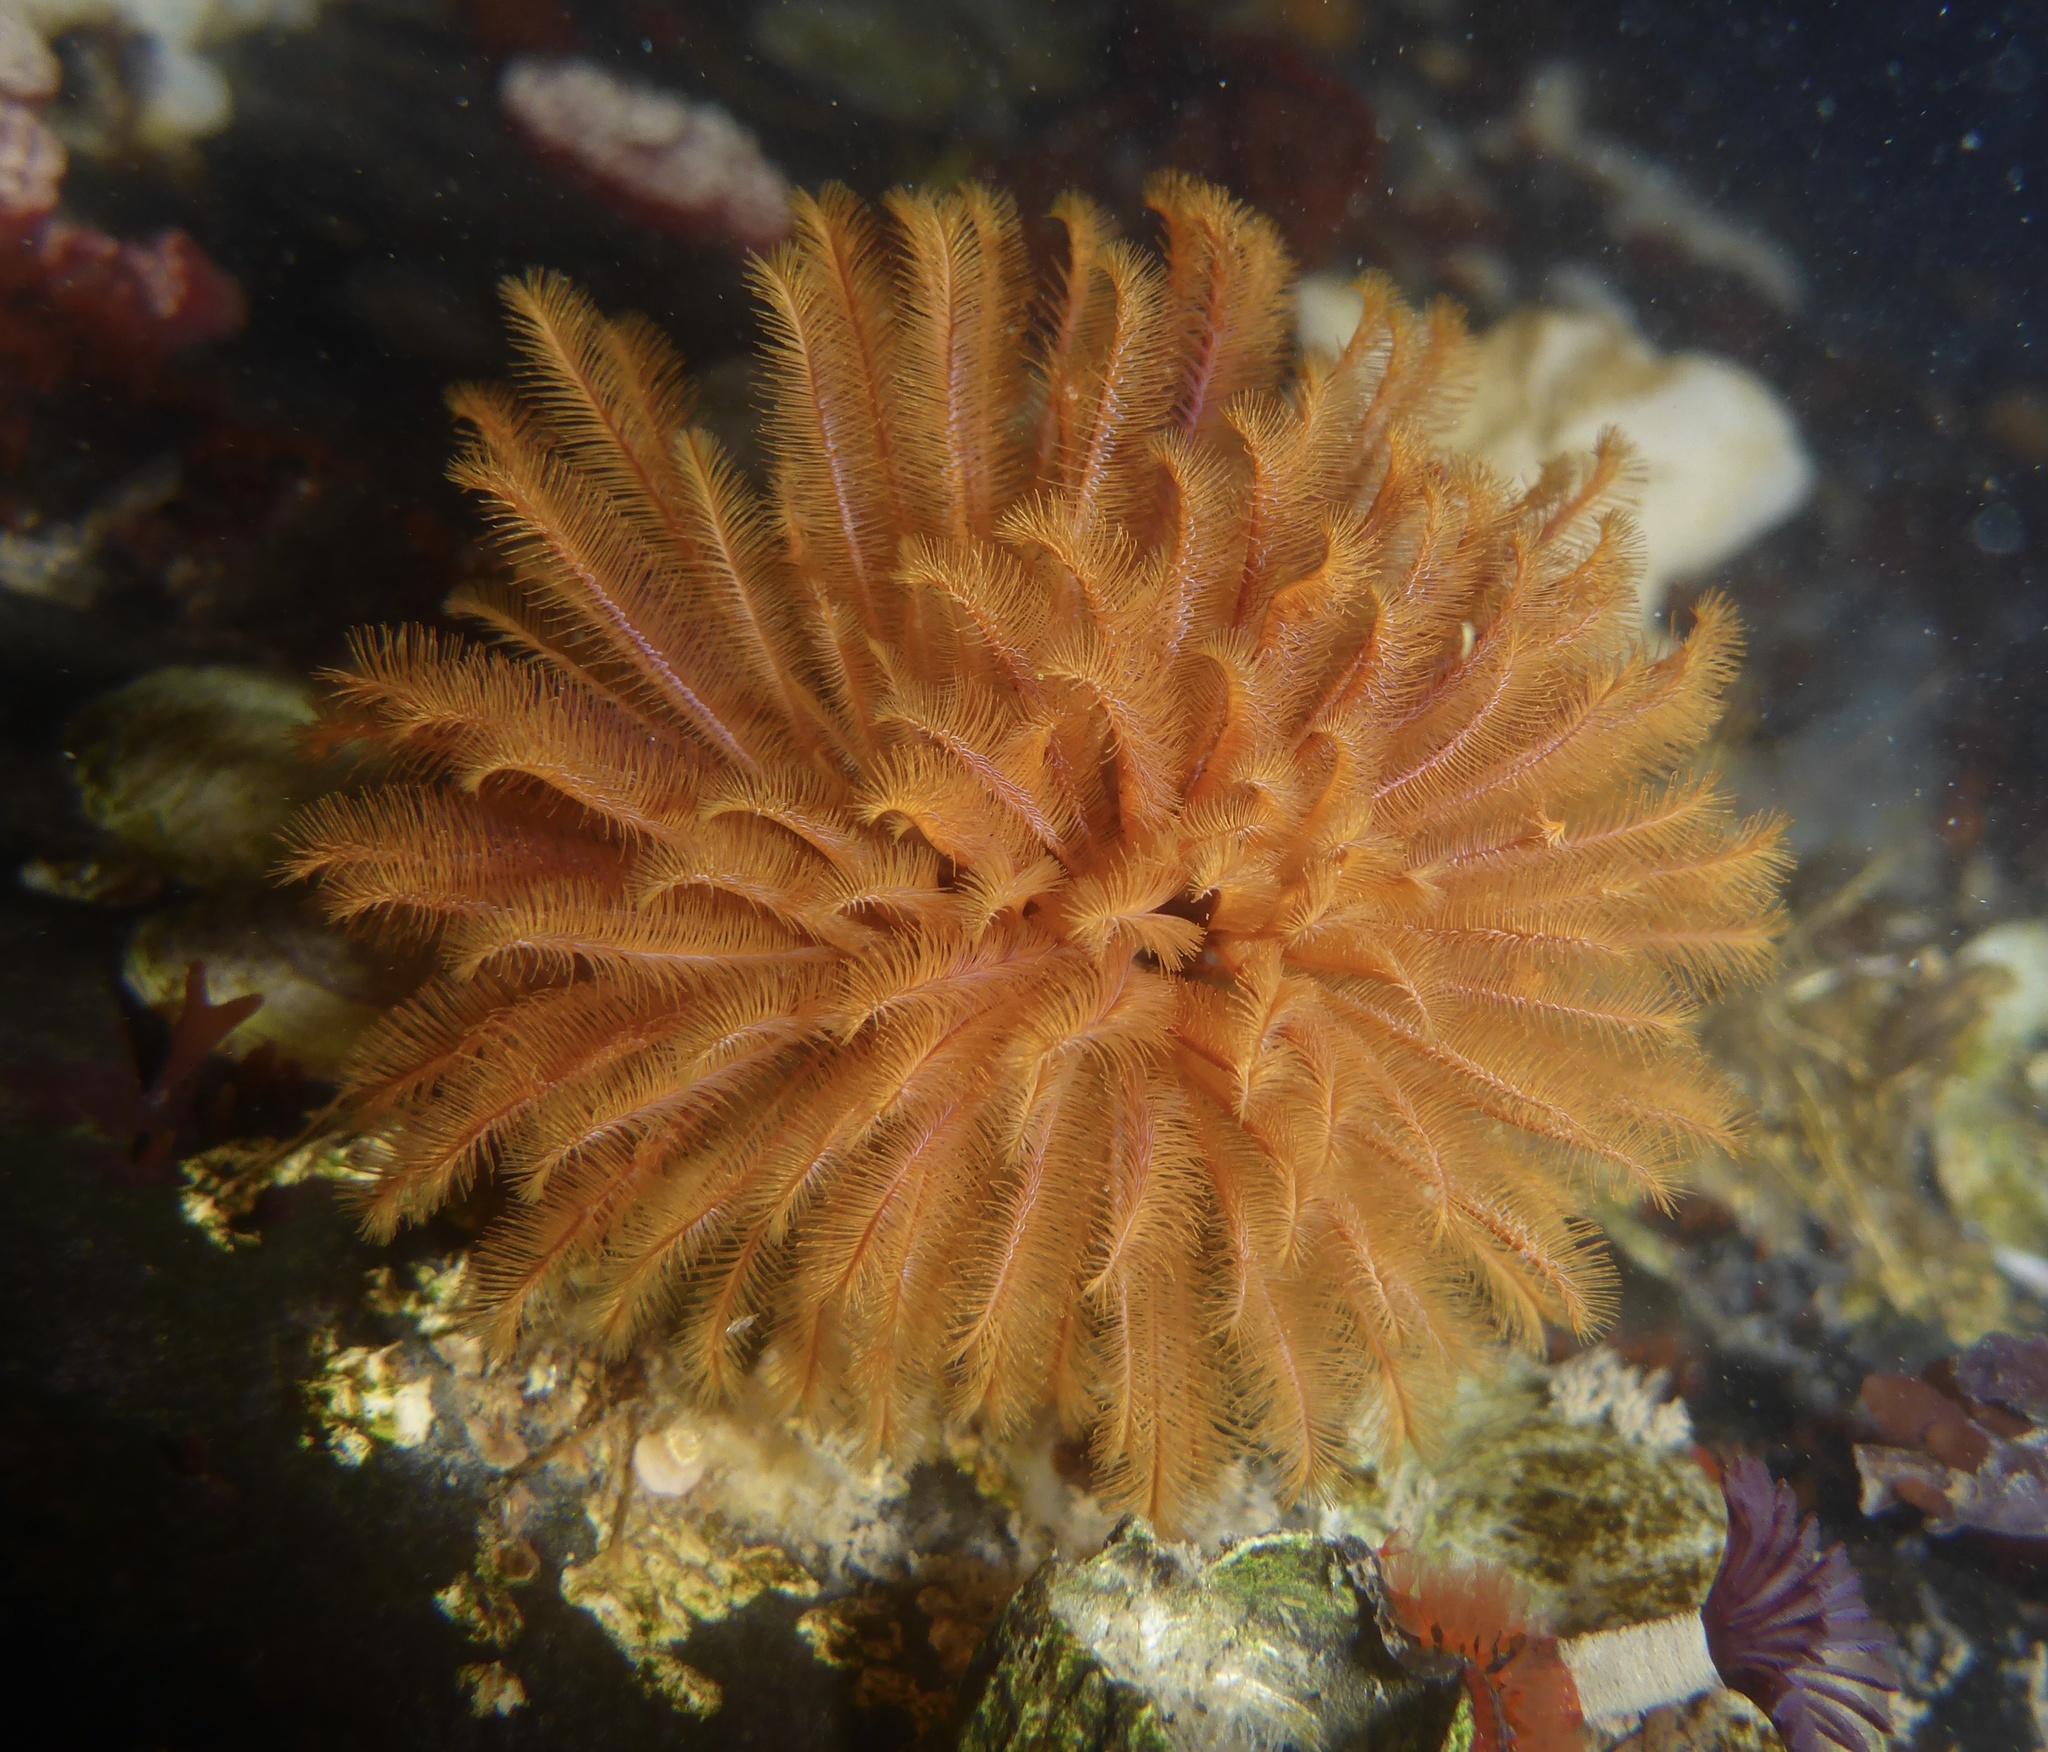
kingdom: Animalia
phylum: Annelida
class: Polychaeta
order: Sabellida
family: Sabellidae
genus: Eudistylia
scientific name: Eudistylia polymorpha
